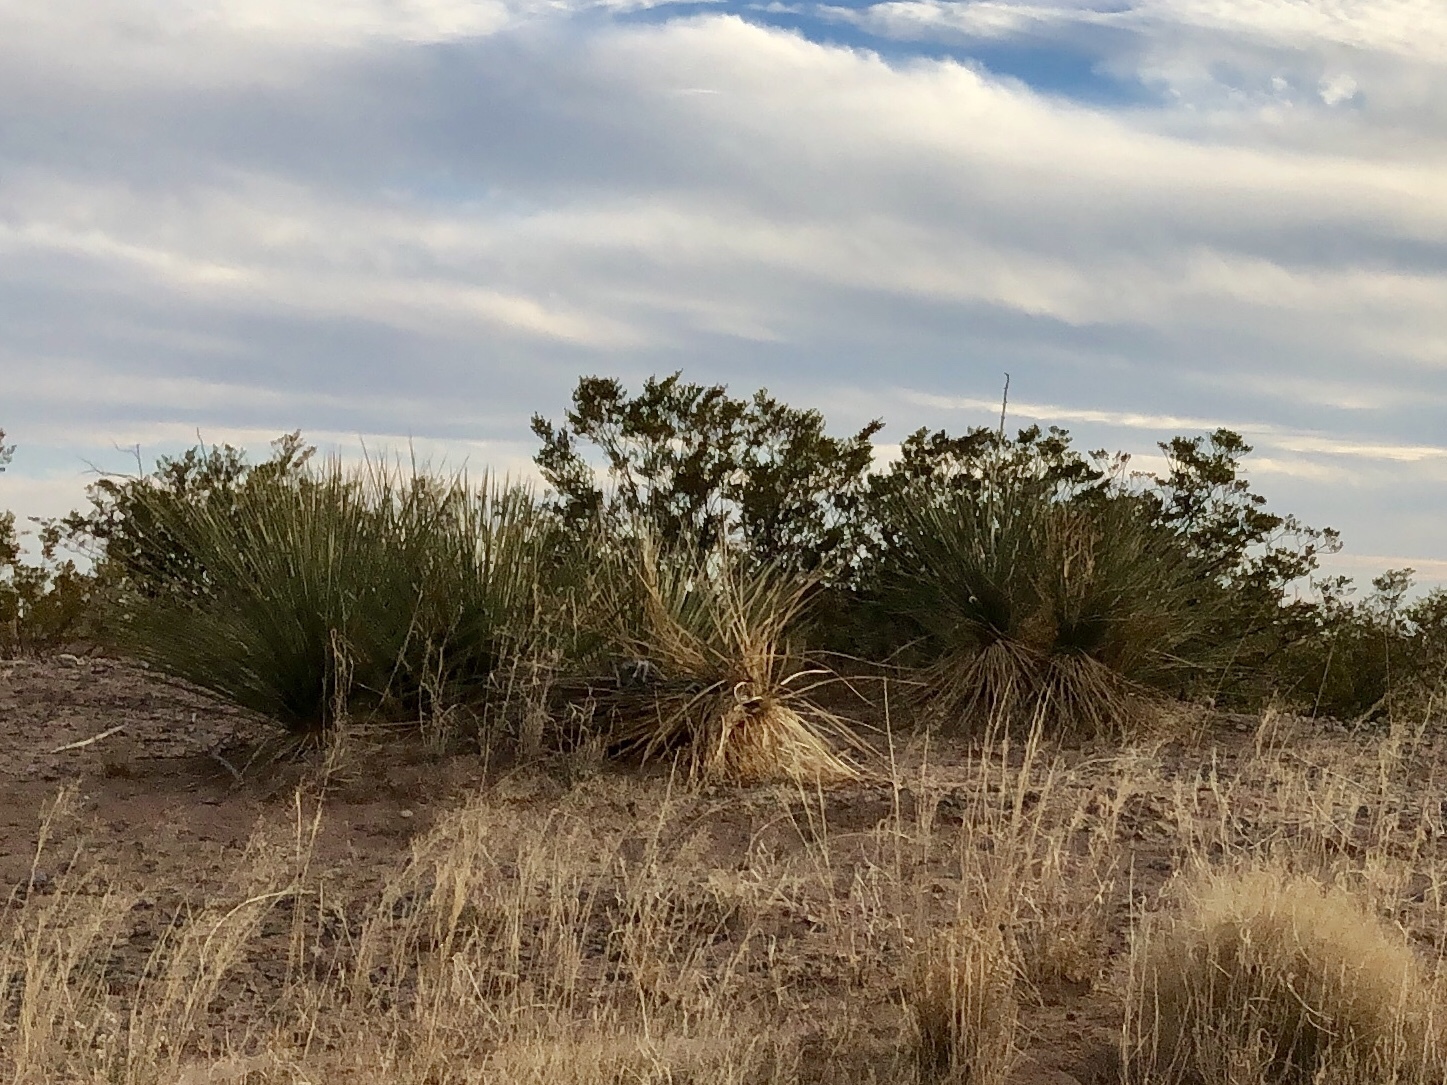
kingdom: Plantae
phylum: Tracheophyta
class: Magnoliopsida
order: Zygophyllales
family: Zygophyllaceae
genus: Larrea
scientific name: Larrea tridentata
